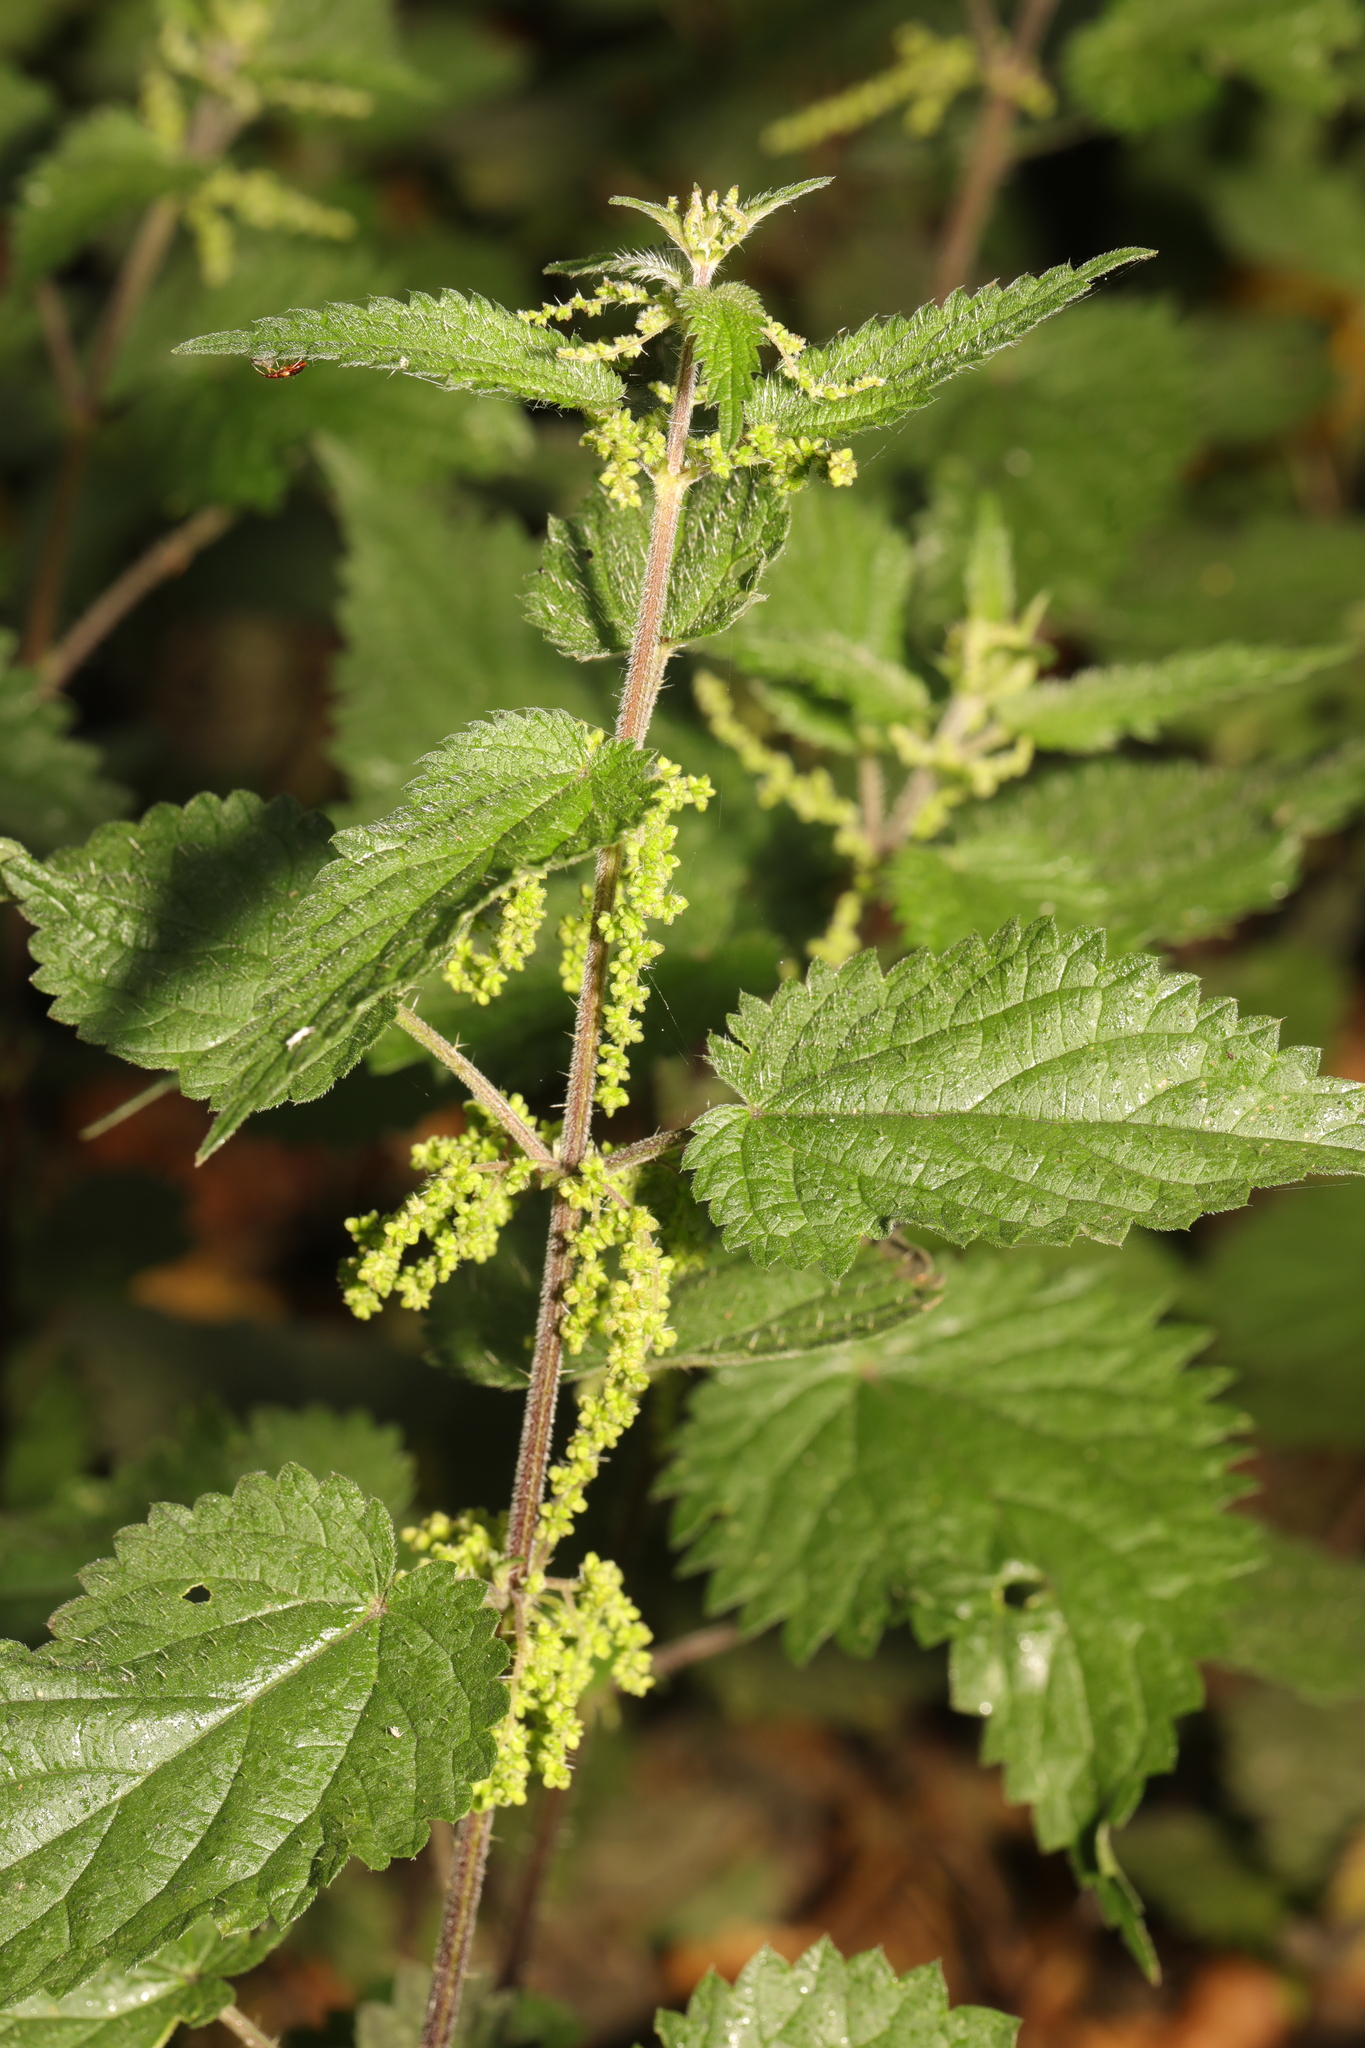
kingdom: Plantae
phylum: Tracheophyta
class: Magnoliopsida
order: Rosales
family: Urticaceae
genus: Urtica
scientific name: Urtica dioica
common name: Common nettle
